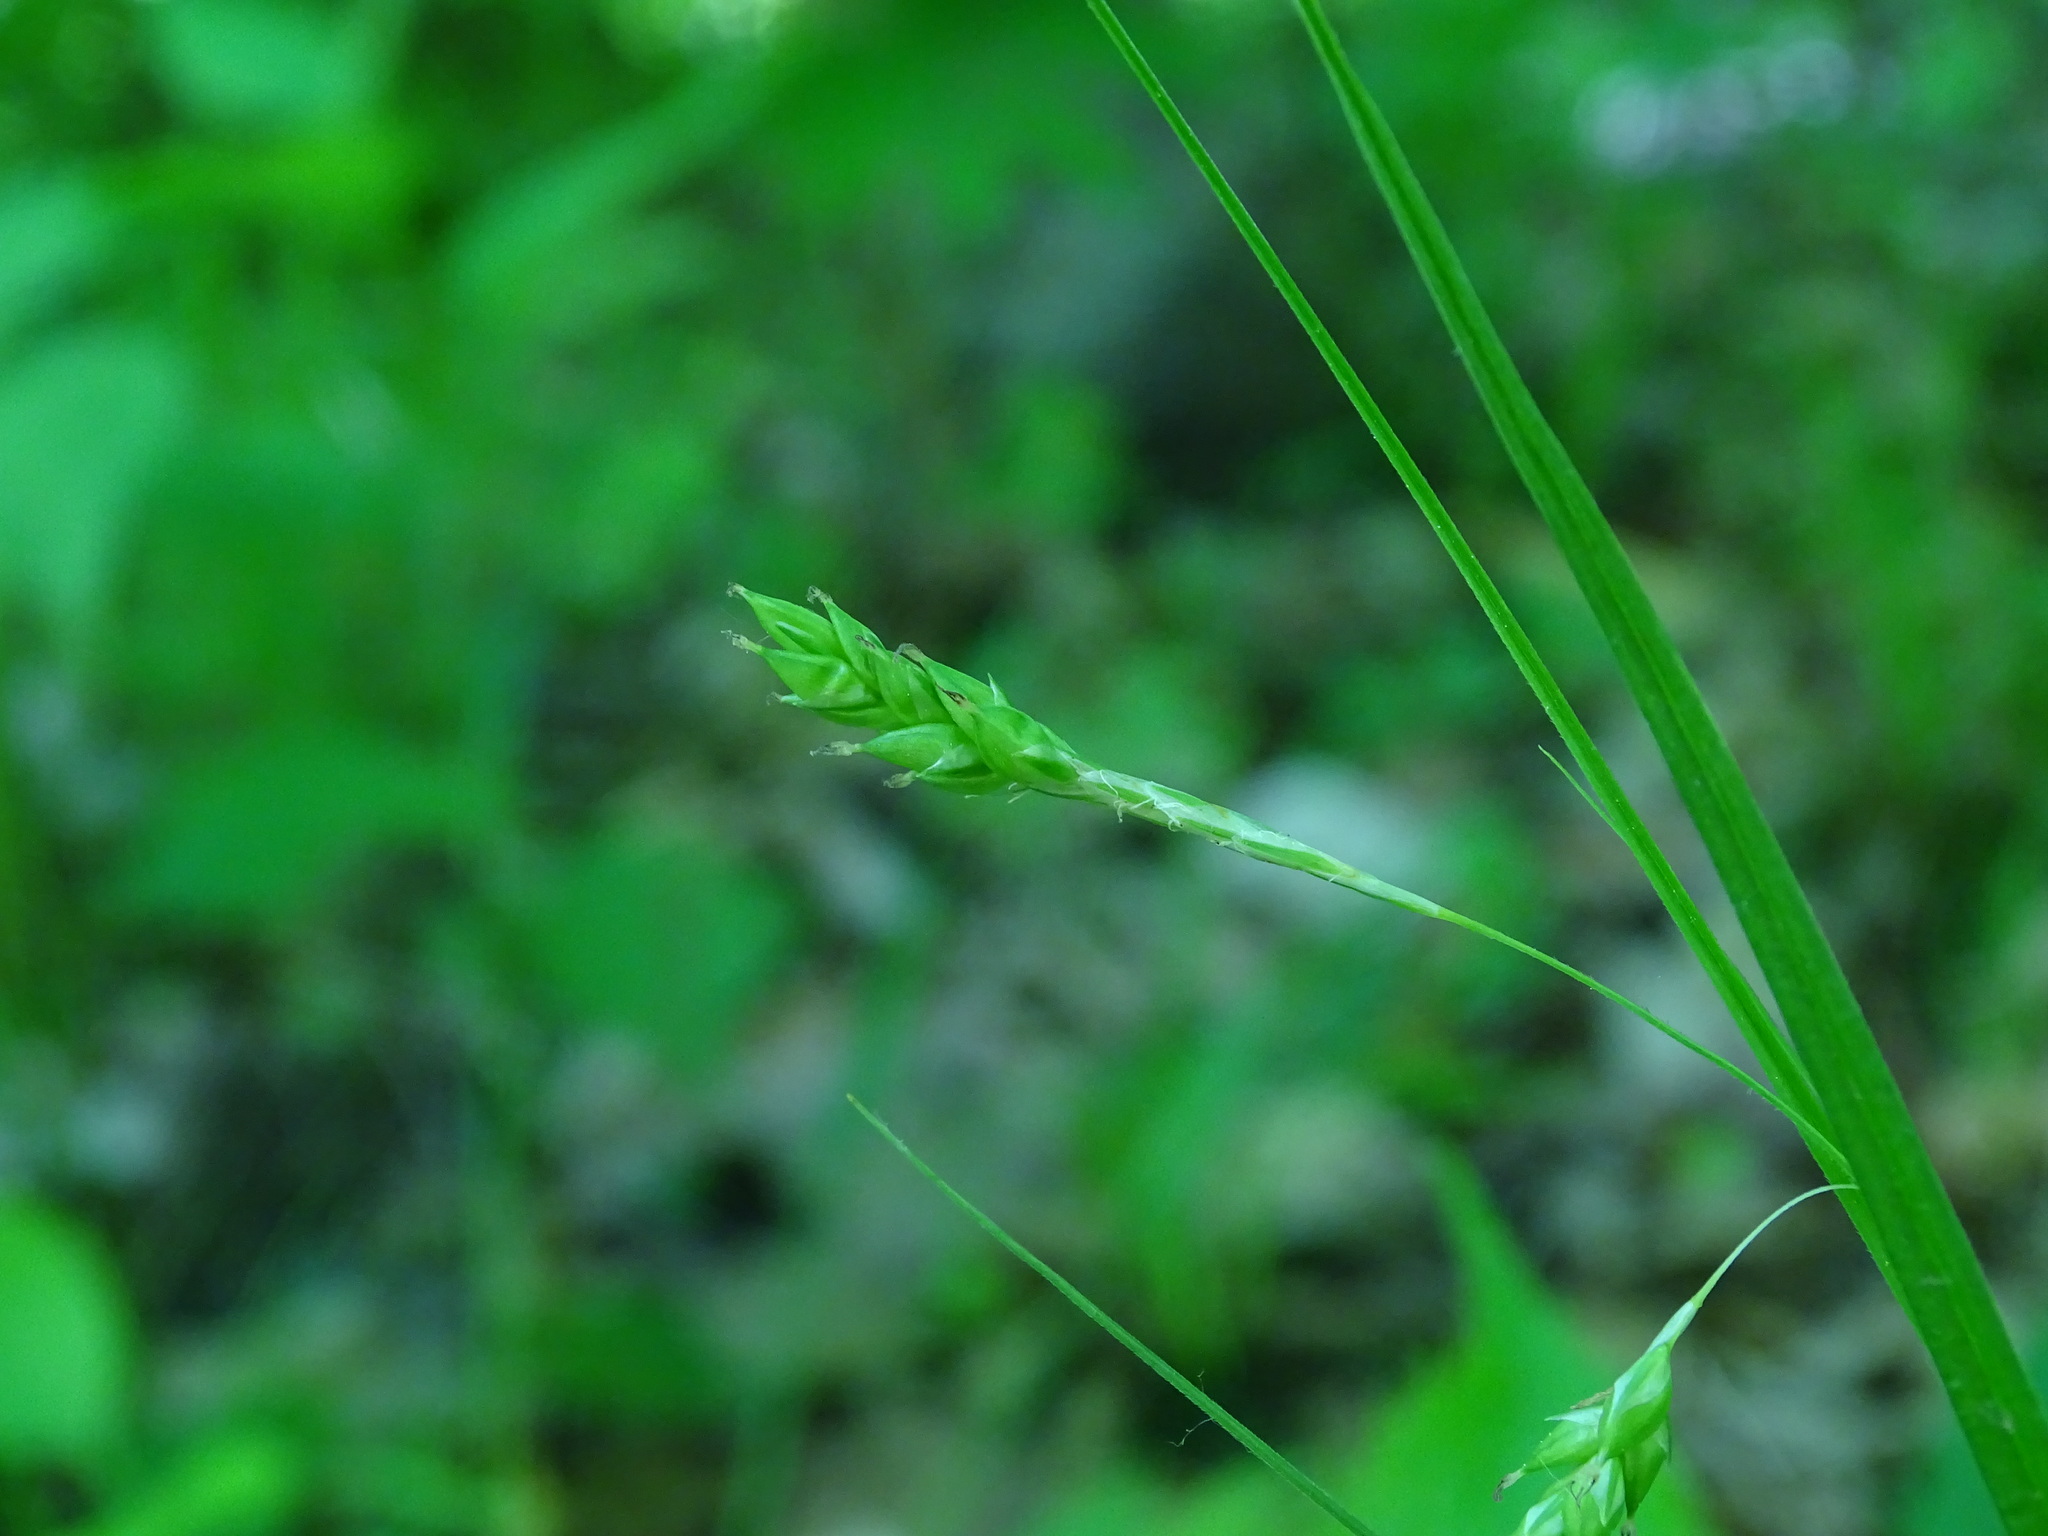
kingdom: Plantae
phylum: Tracheophyta
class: Liliopsida
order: Poales
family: Cyperaceae
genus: Carex
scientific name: Carex formosa
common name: Awnless graceful sedge
